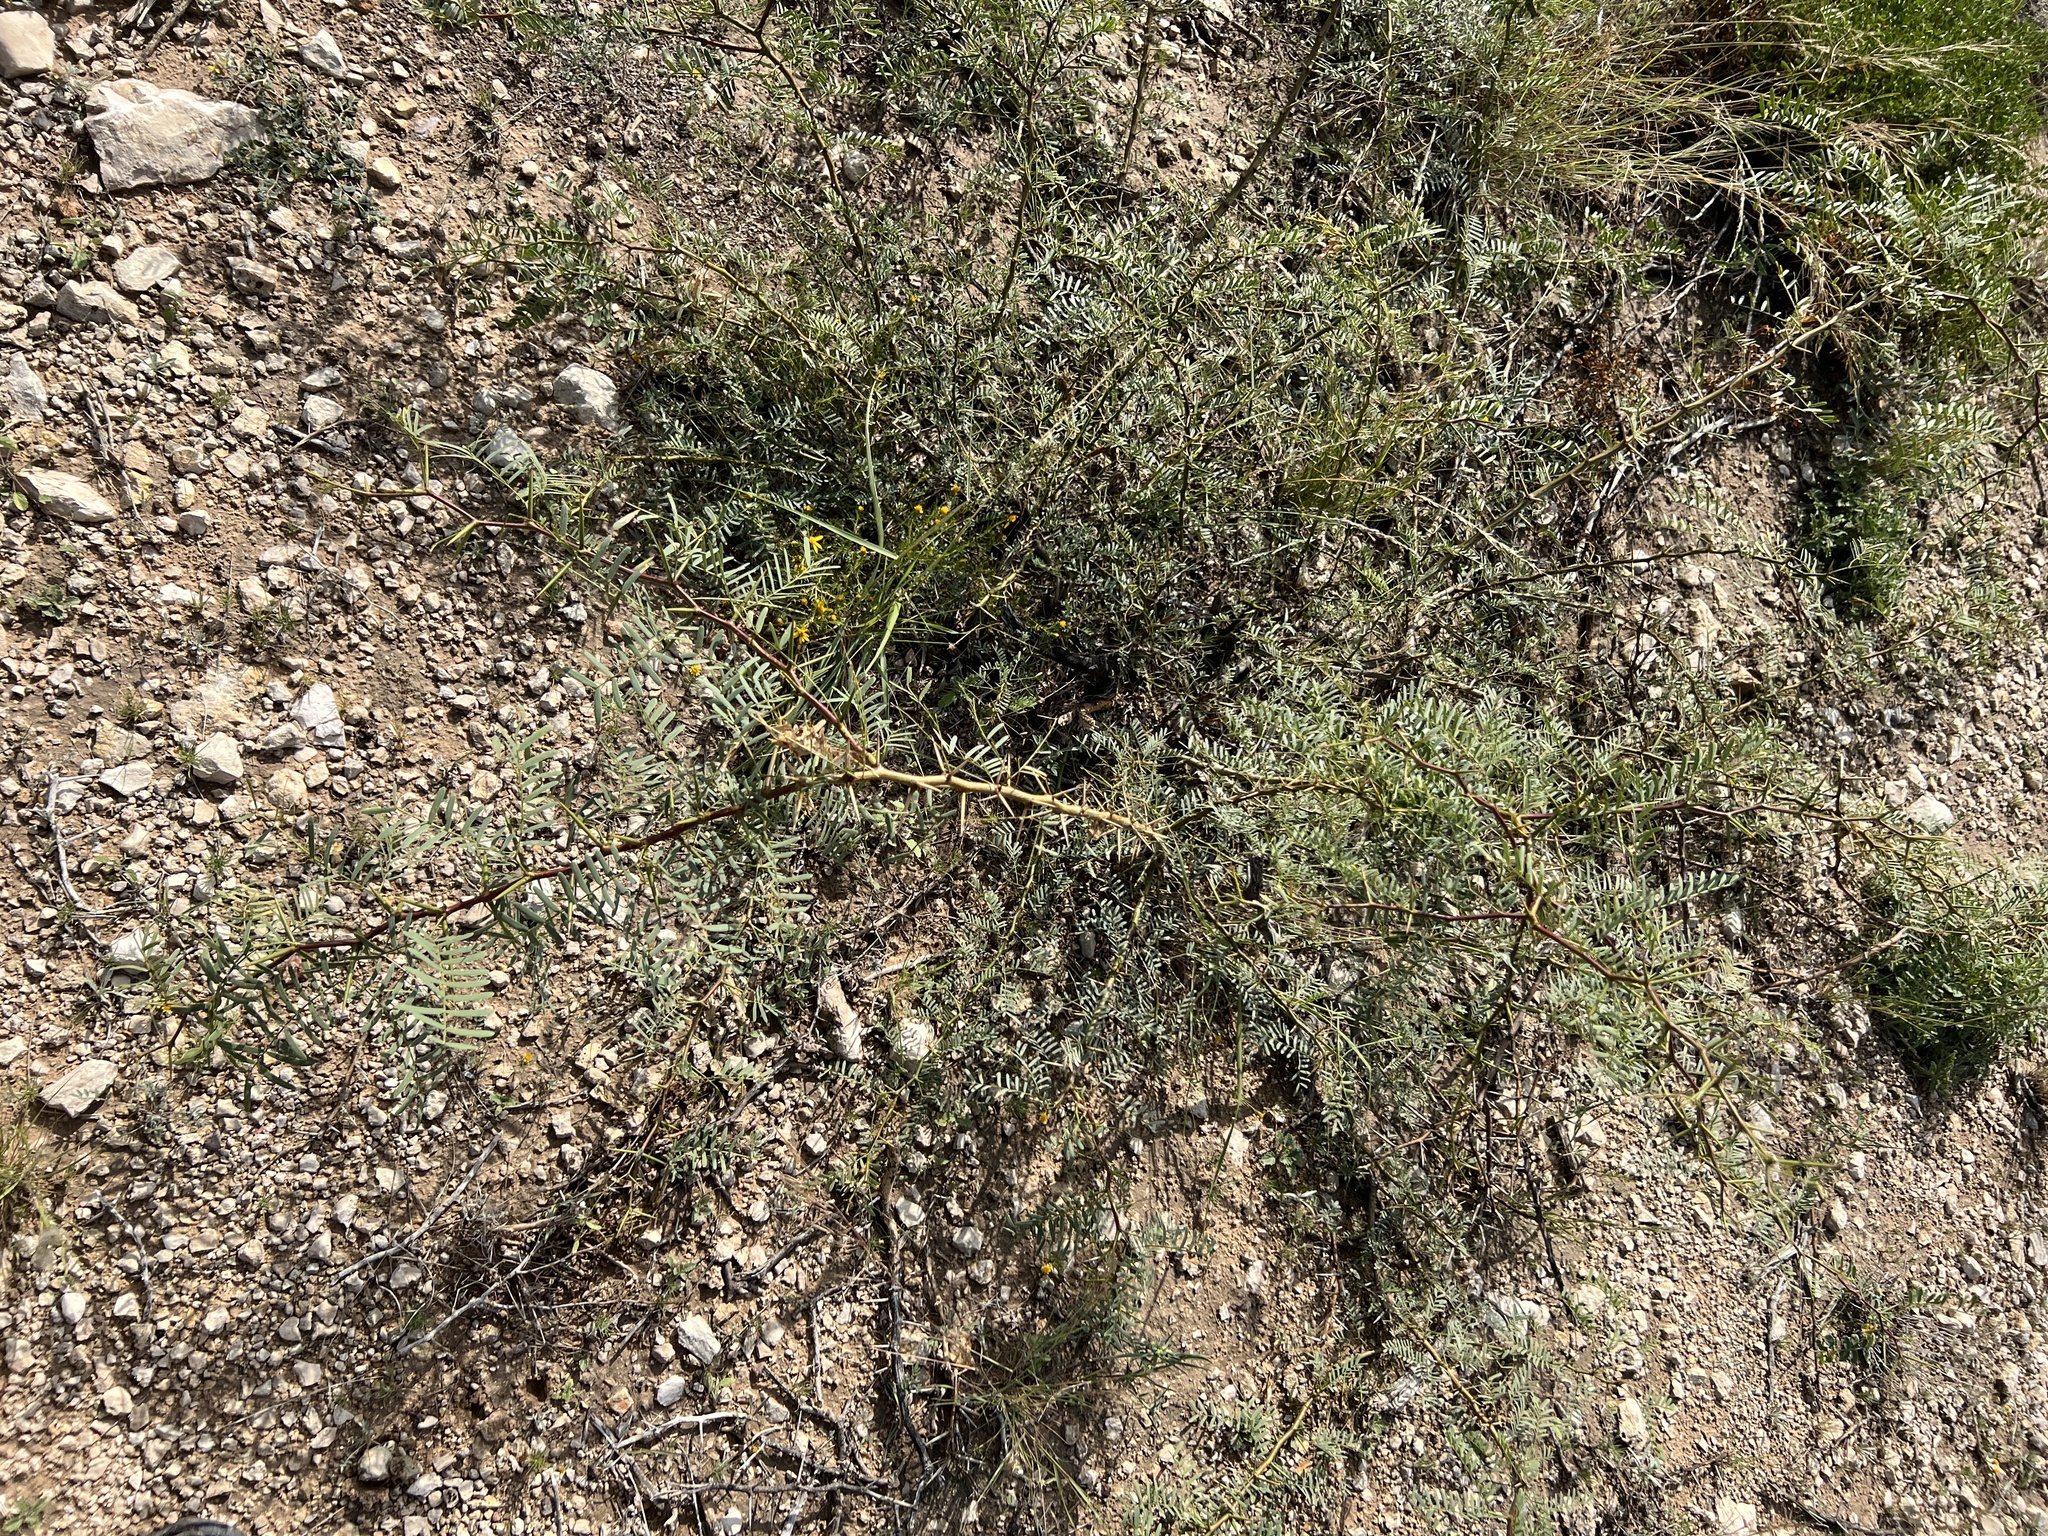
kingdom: Plantae
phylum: Tracheophyta
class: Magnoliopsida
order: Fabales
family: Fabaceae
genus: Prosopis
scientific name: Prosopis glandulosa
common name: Honey mesquite
